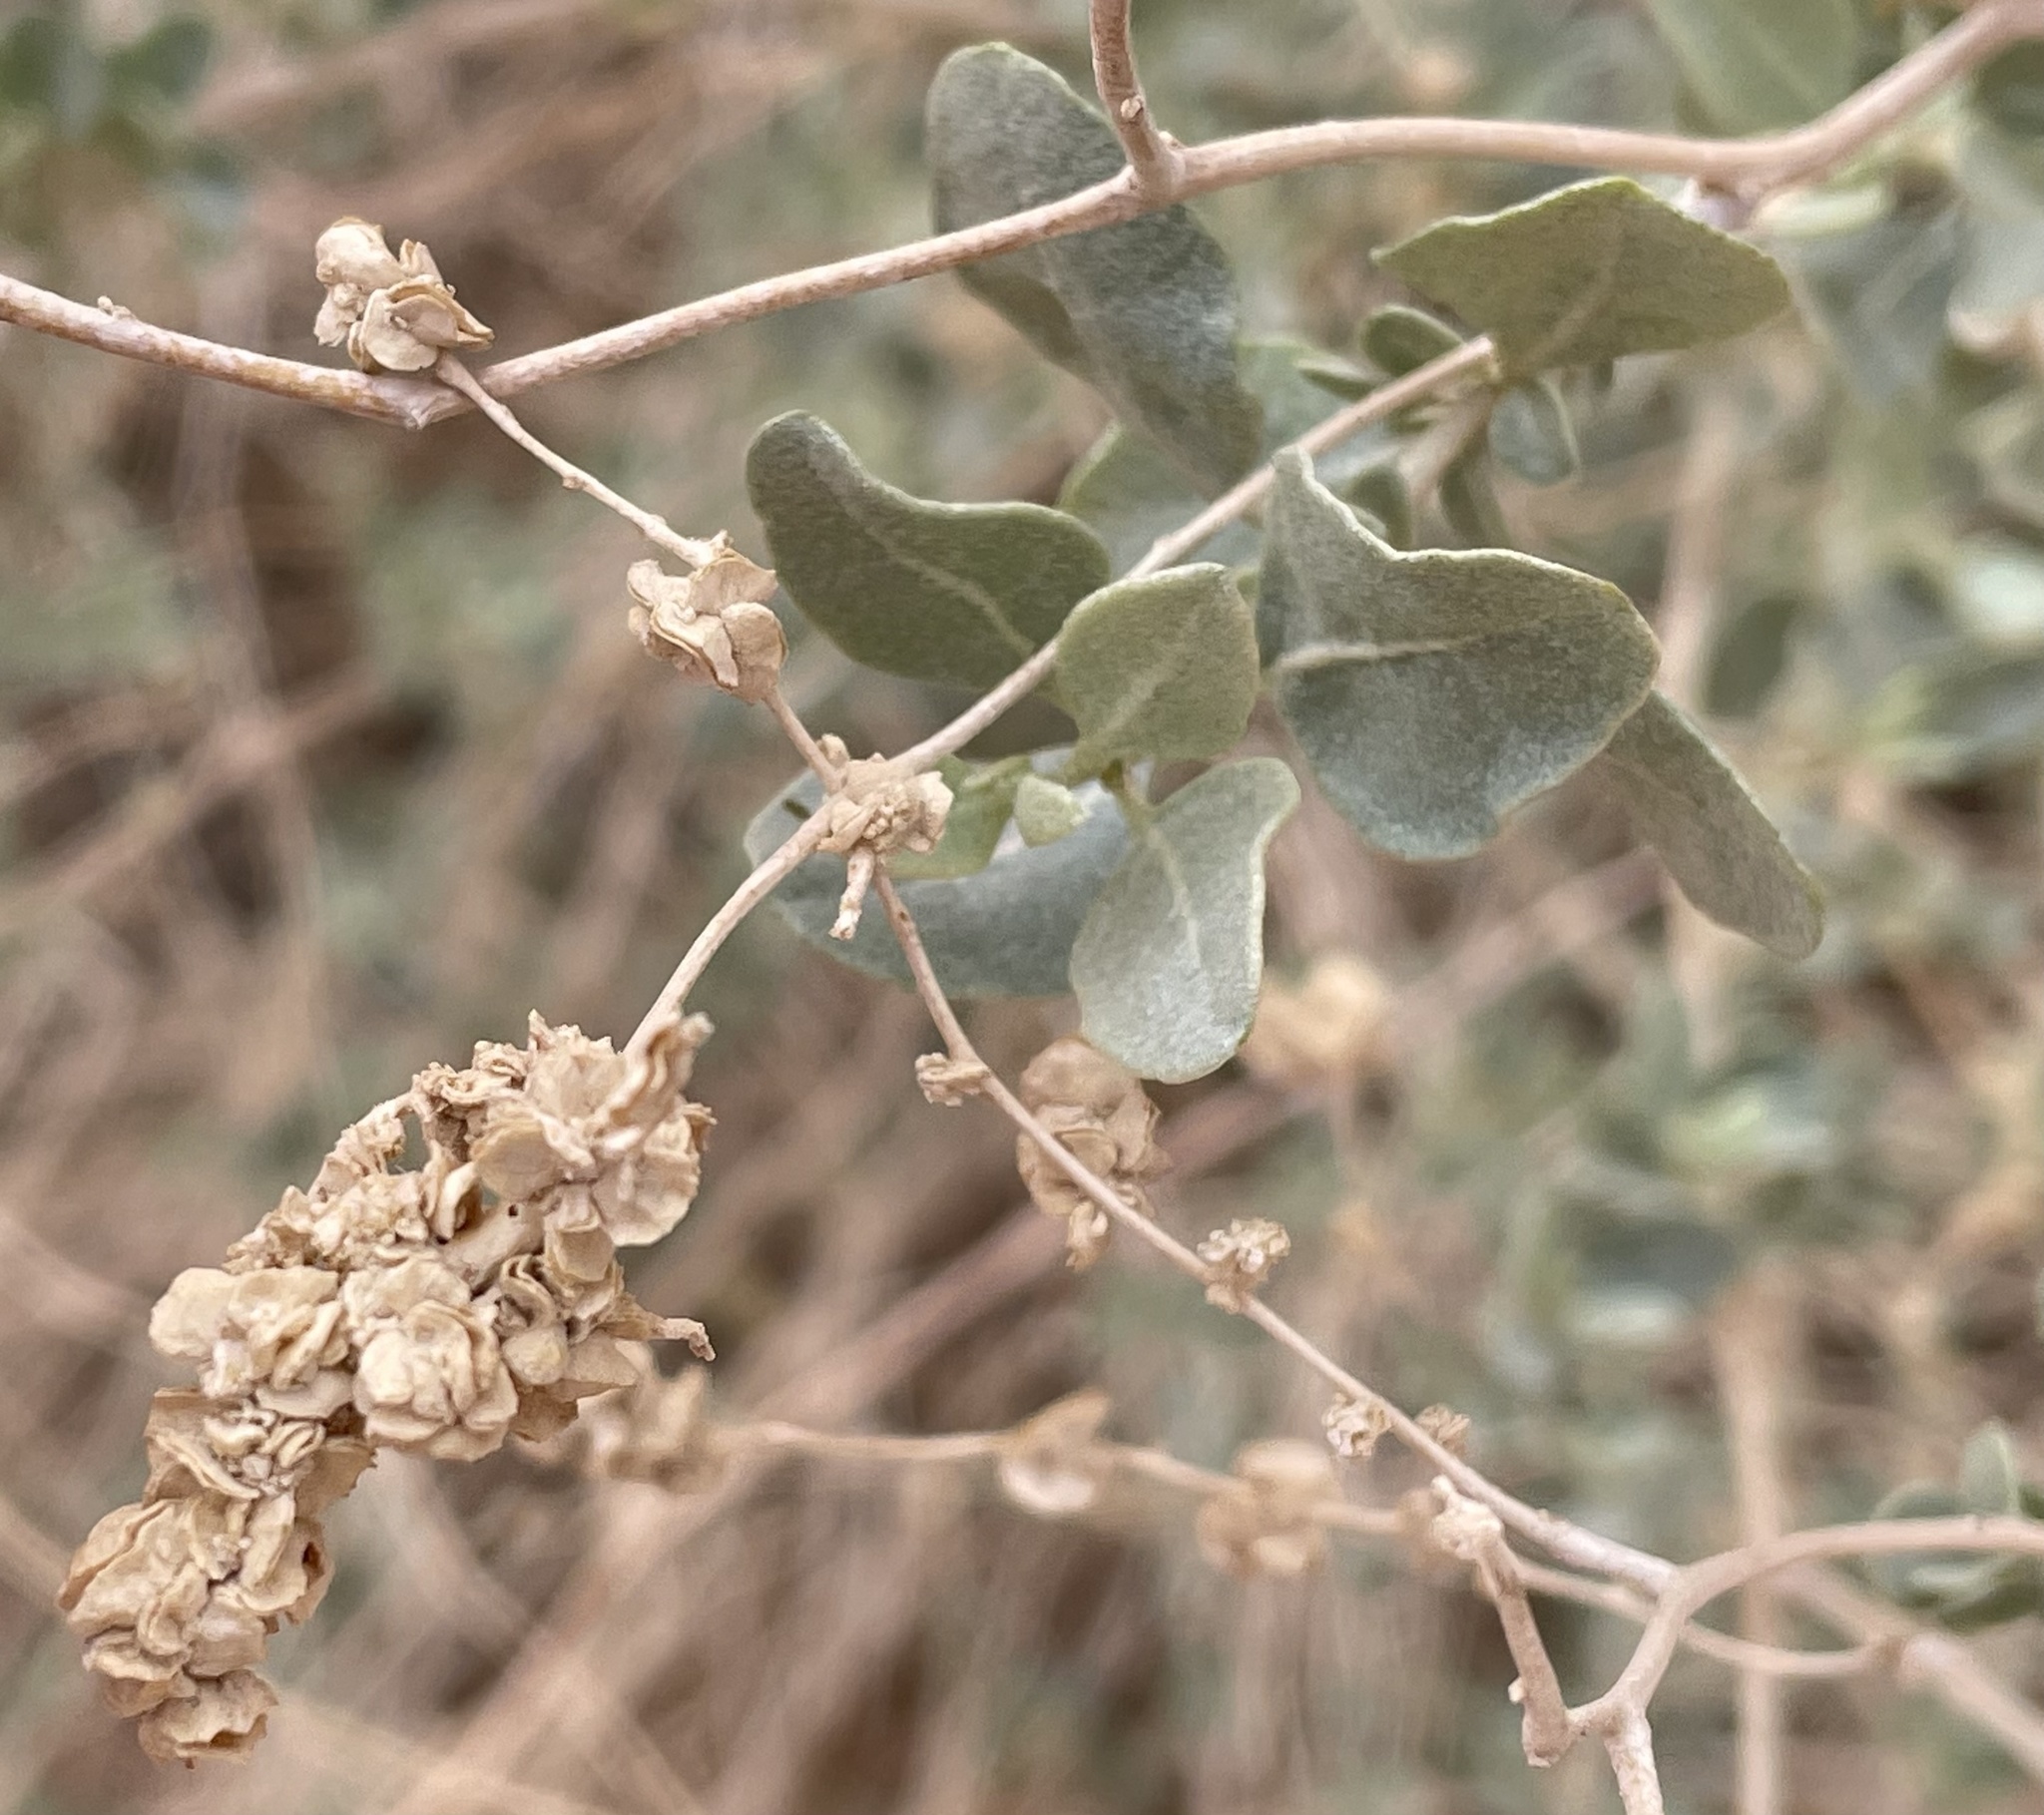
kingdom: Plantae
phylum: Tracheophyta
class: Magnoliopsida
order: Caryophyllales
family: Amaranthaceae
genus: Atriplex
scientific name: Atriplex halimus
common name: Shrubby orache
